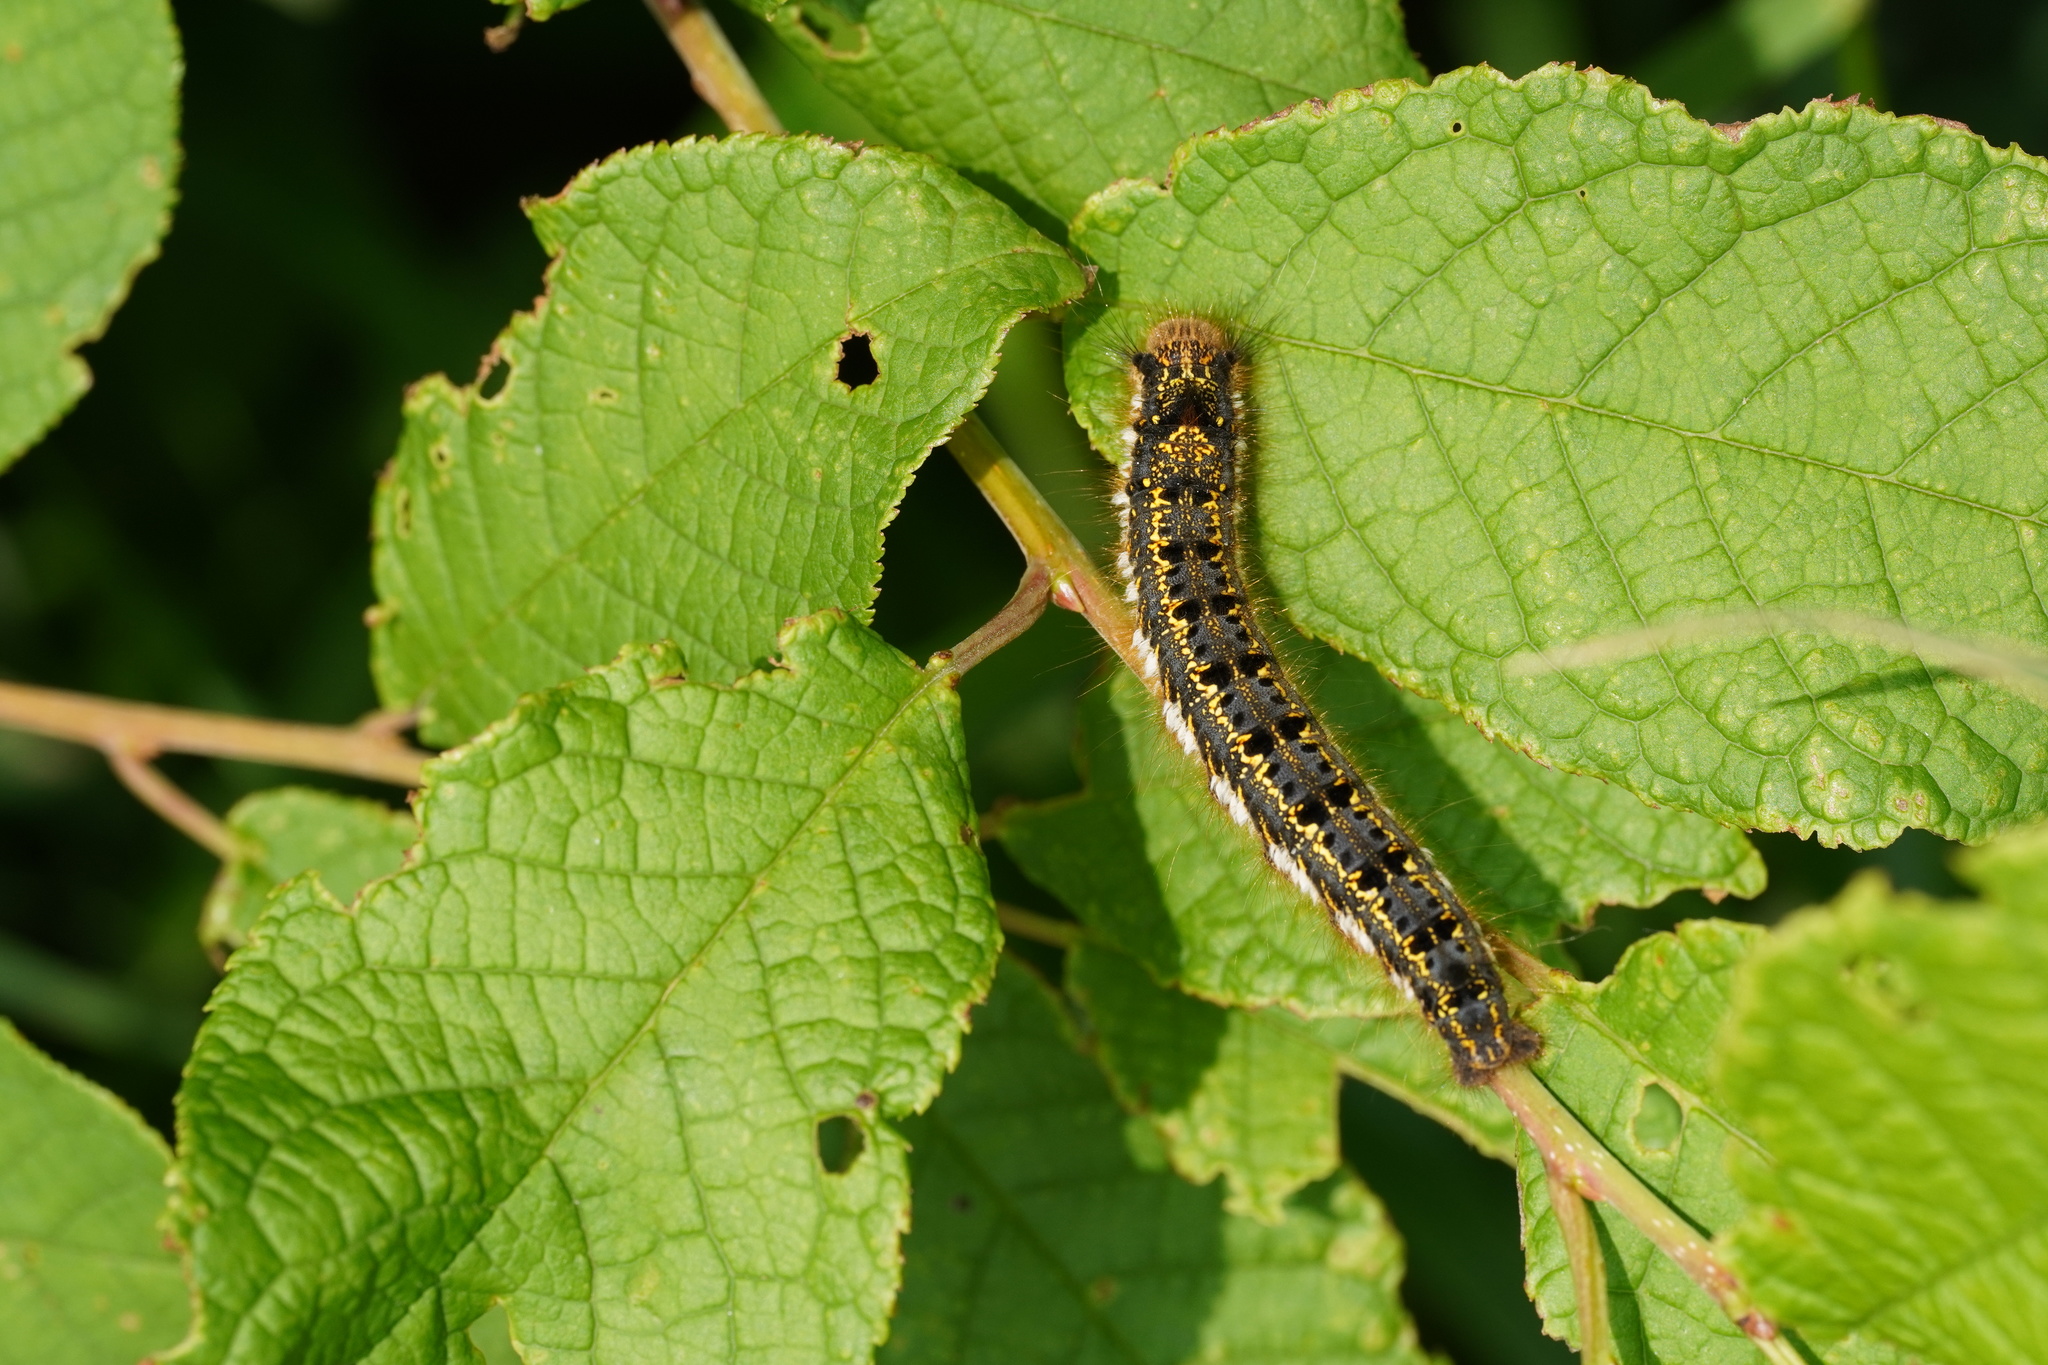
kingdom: Animalia
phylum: Arthropoda
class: Insecta
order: Lepidoptera
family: Lasiocampidae
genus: Euthrix
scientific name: Euthrix potatoria
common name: Drinker
